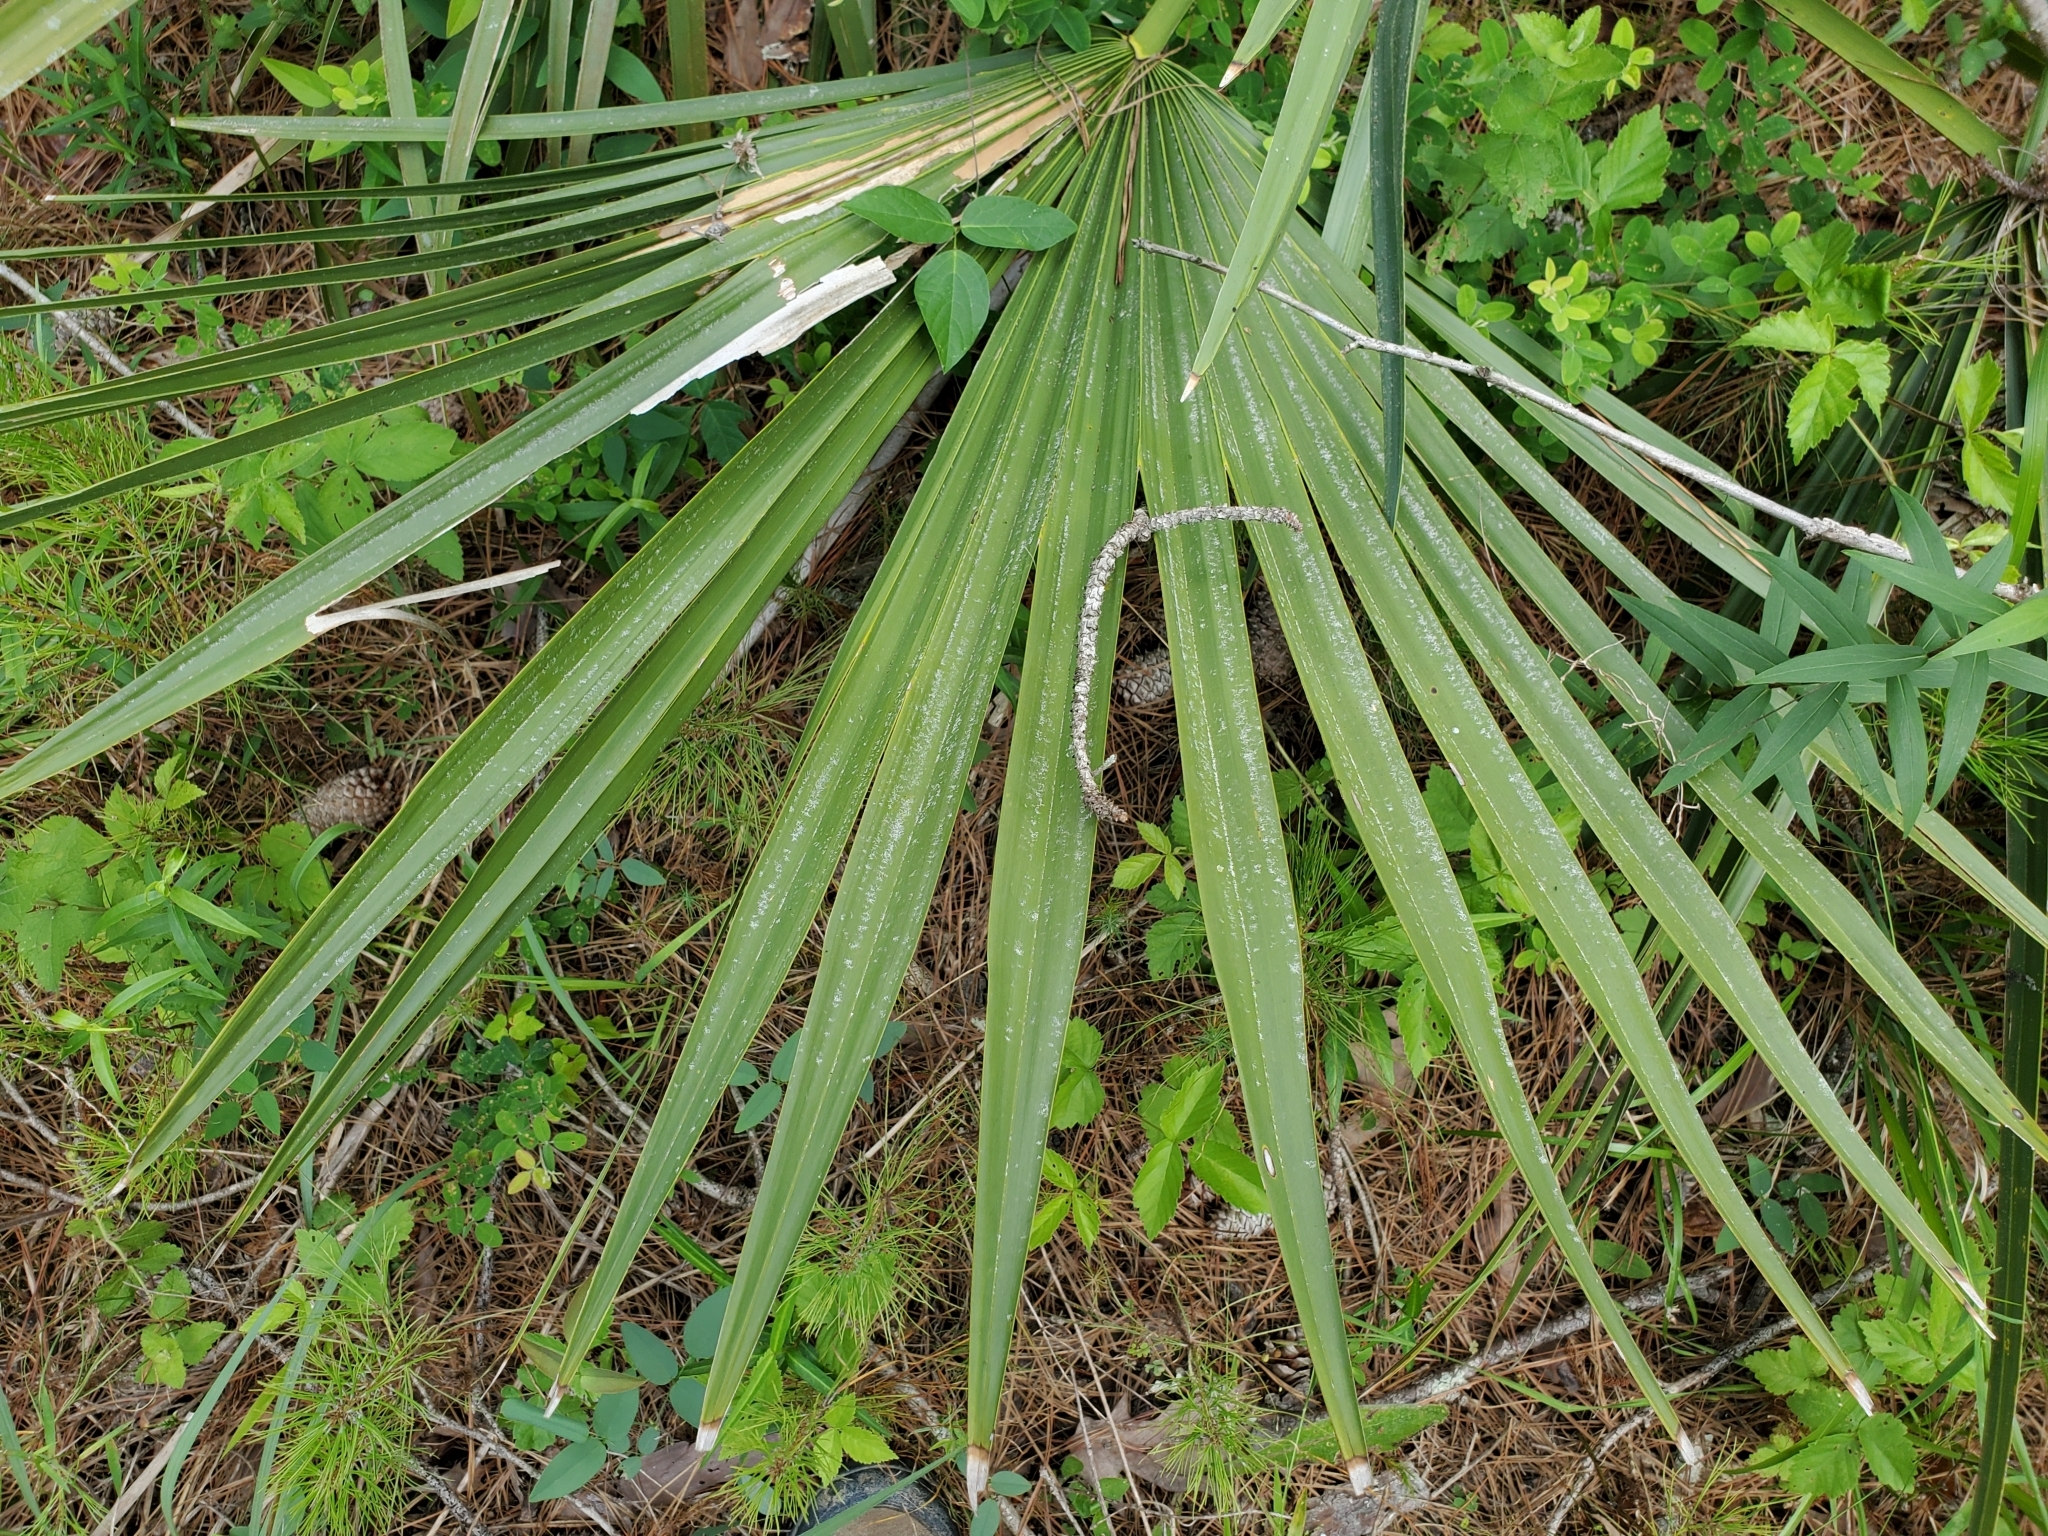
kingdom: Plantae
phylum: Tracheophyta
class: Liliopsida
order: Arecales
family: Arecaceae
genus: Sabal
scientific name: Sabal minor
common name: Dwarf palmetto
